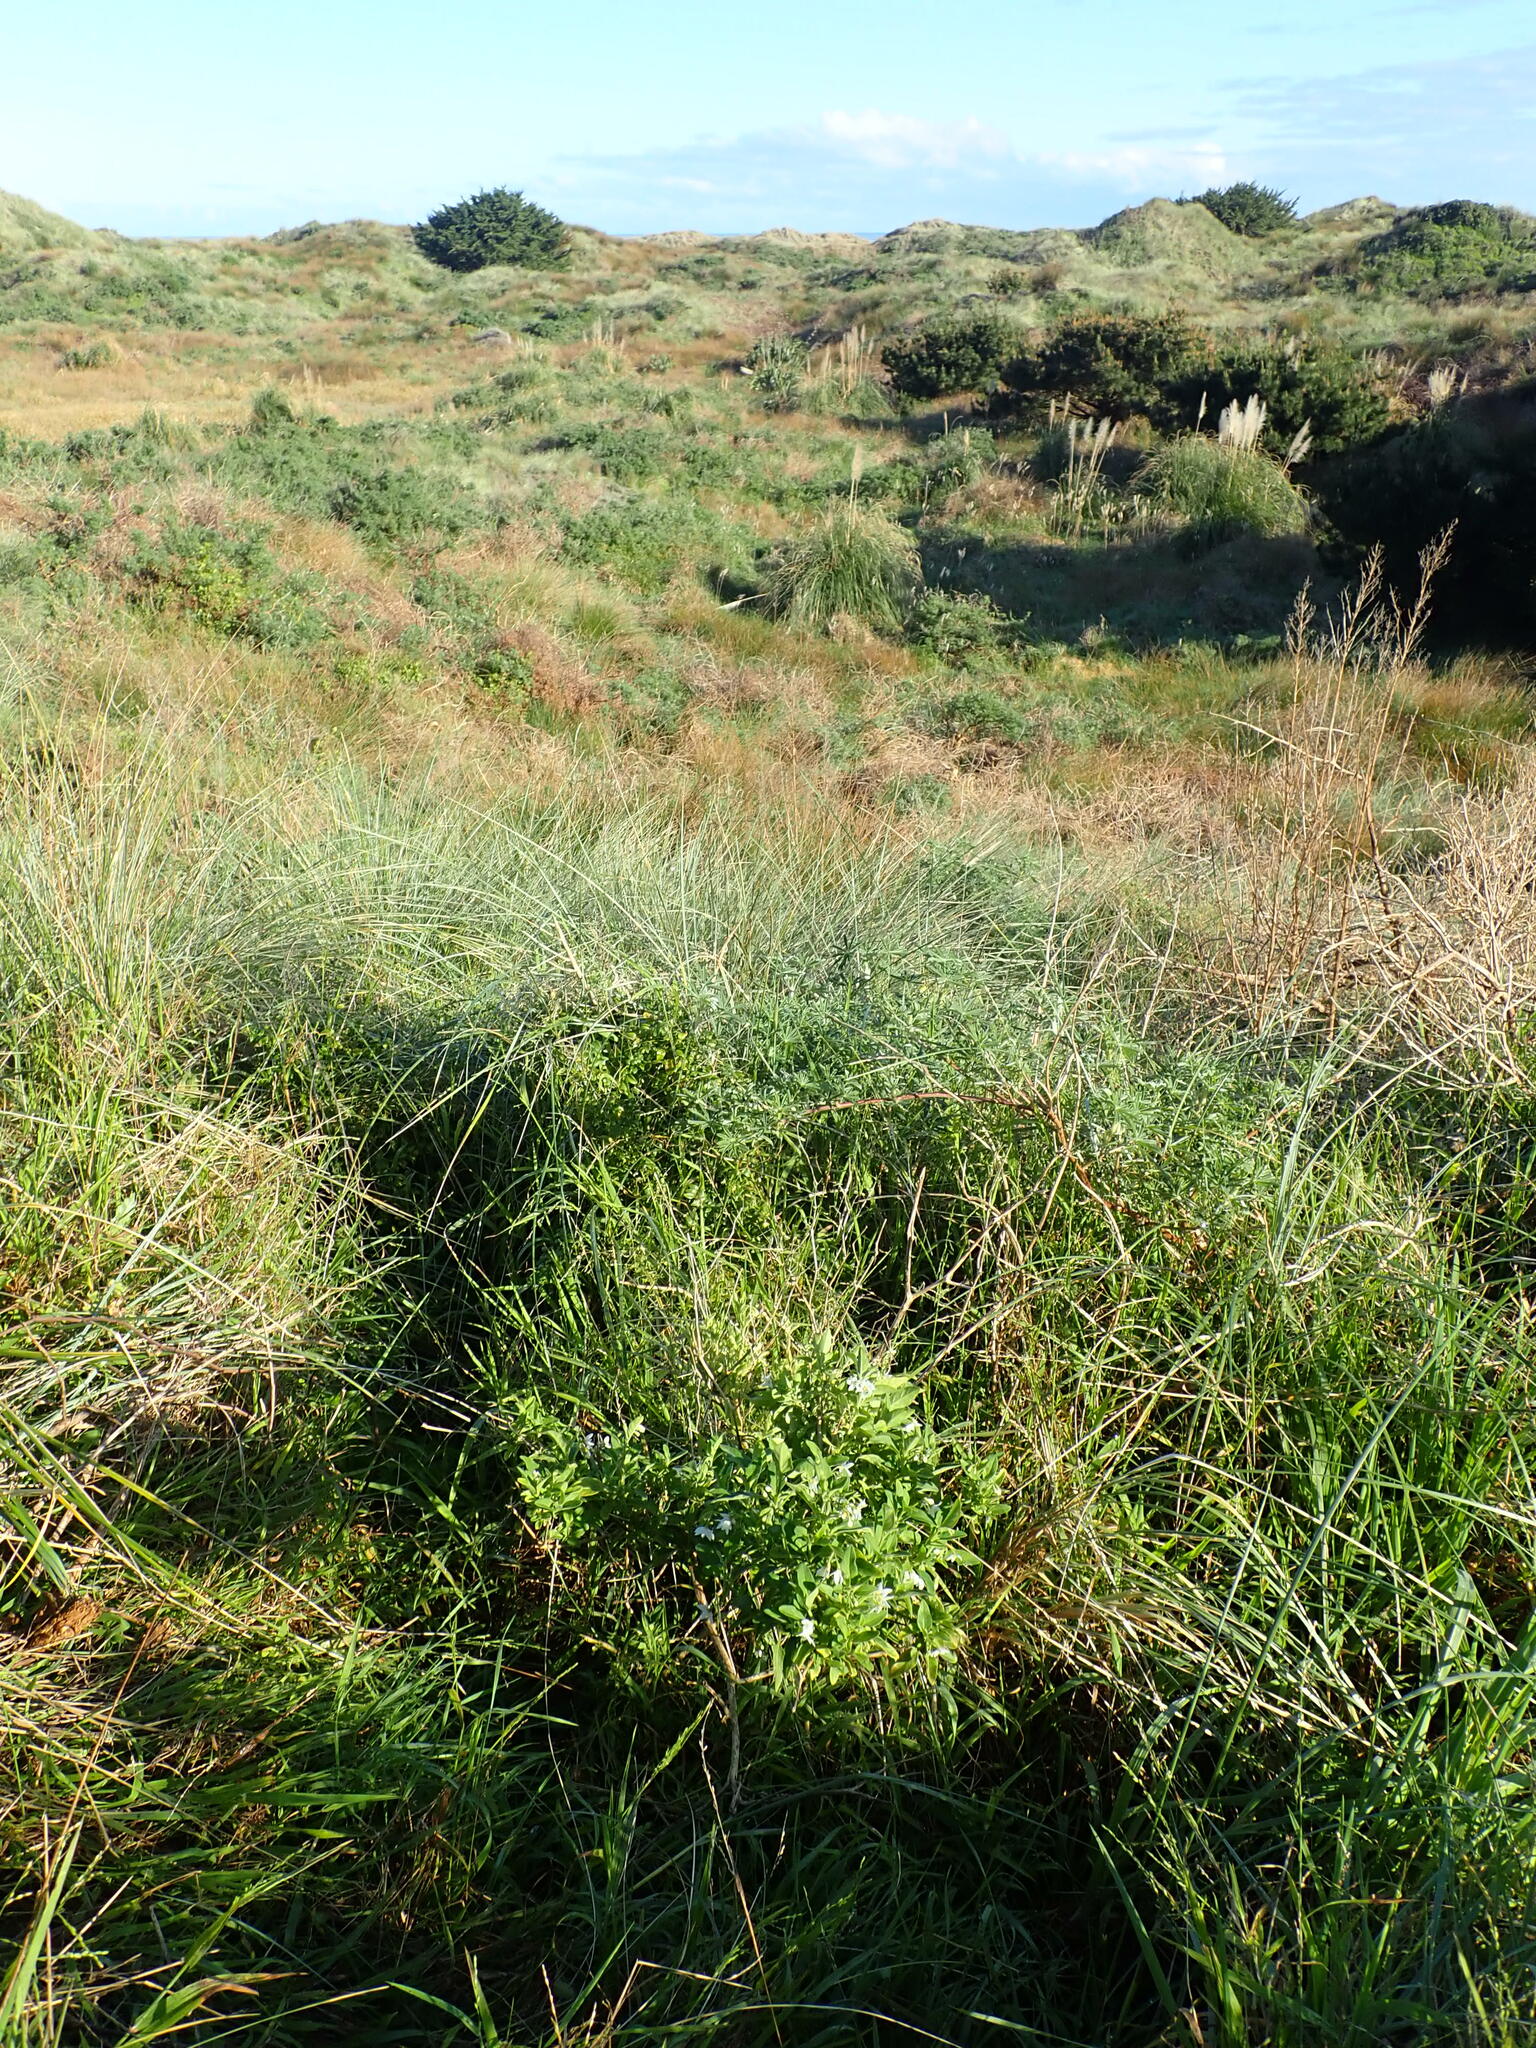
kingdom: Plantae
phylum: Tracheophyta
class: Magnoliopsida
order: Solanales
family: Solanaceae
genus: Solanum
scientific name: Solanum chenopodioides
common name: Tall nightshade
